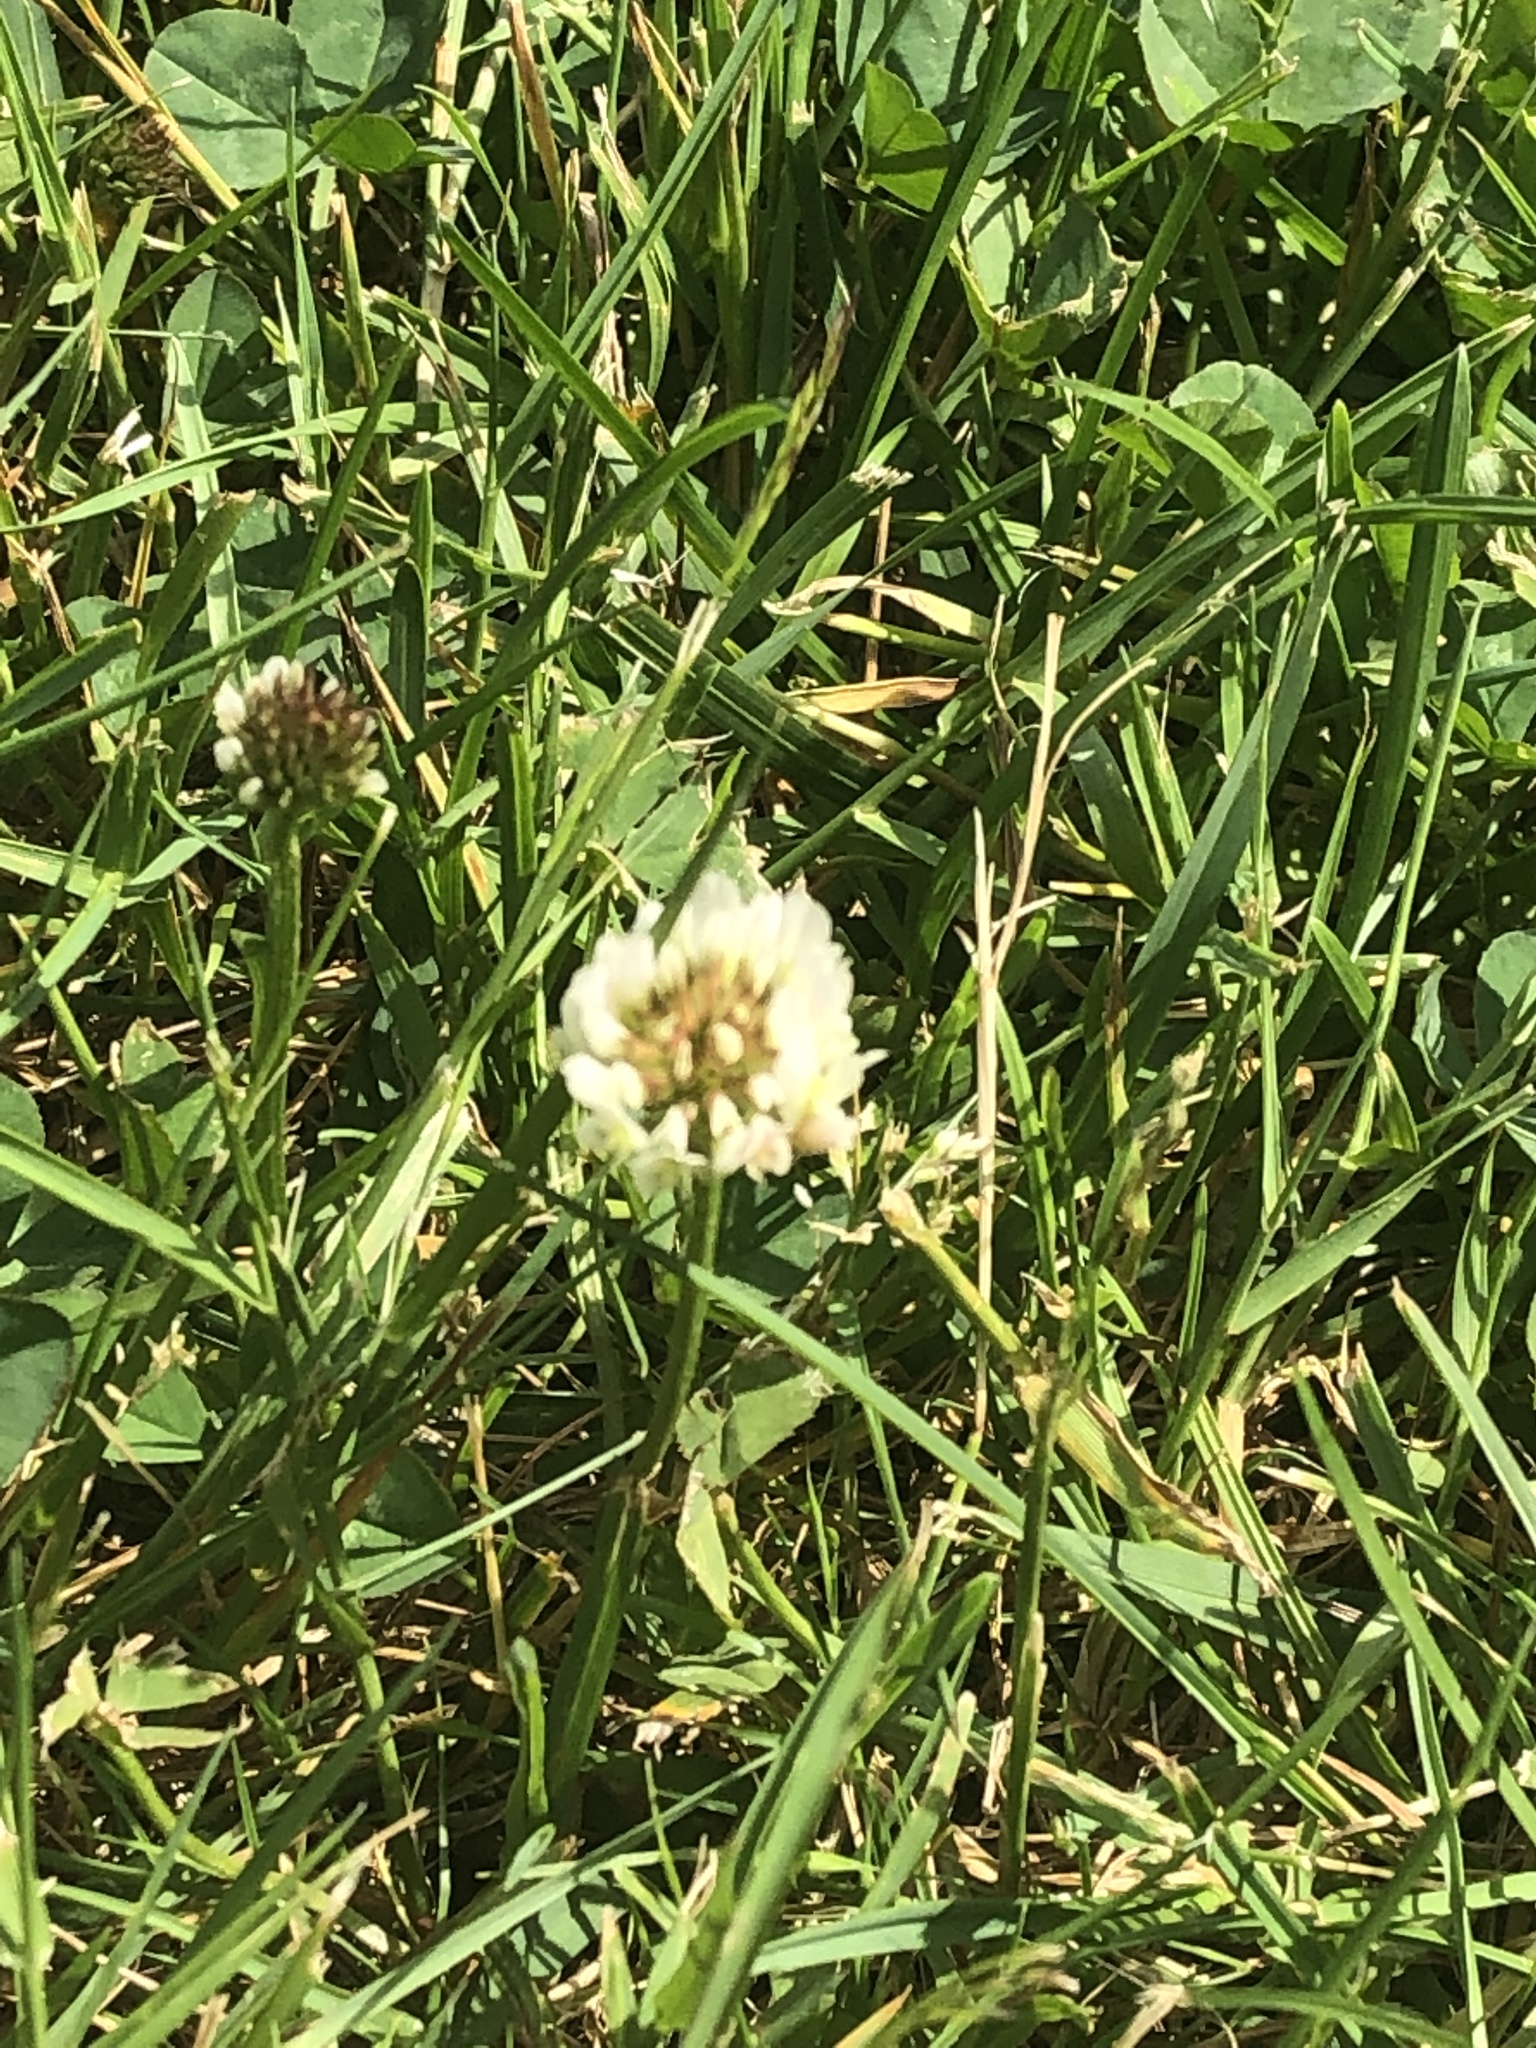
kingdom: Plantae
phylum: Tracheophyta
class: Magnoliopsida
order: Fabales
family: Fabaceae
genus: Trifolium
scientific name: Trifolium repens
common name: White clover
